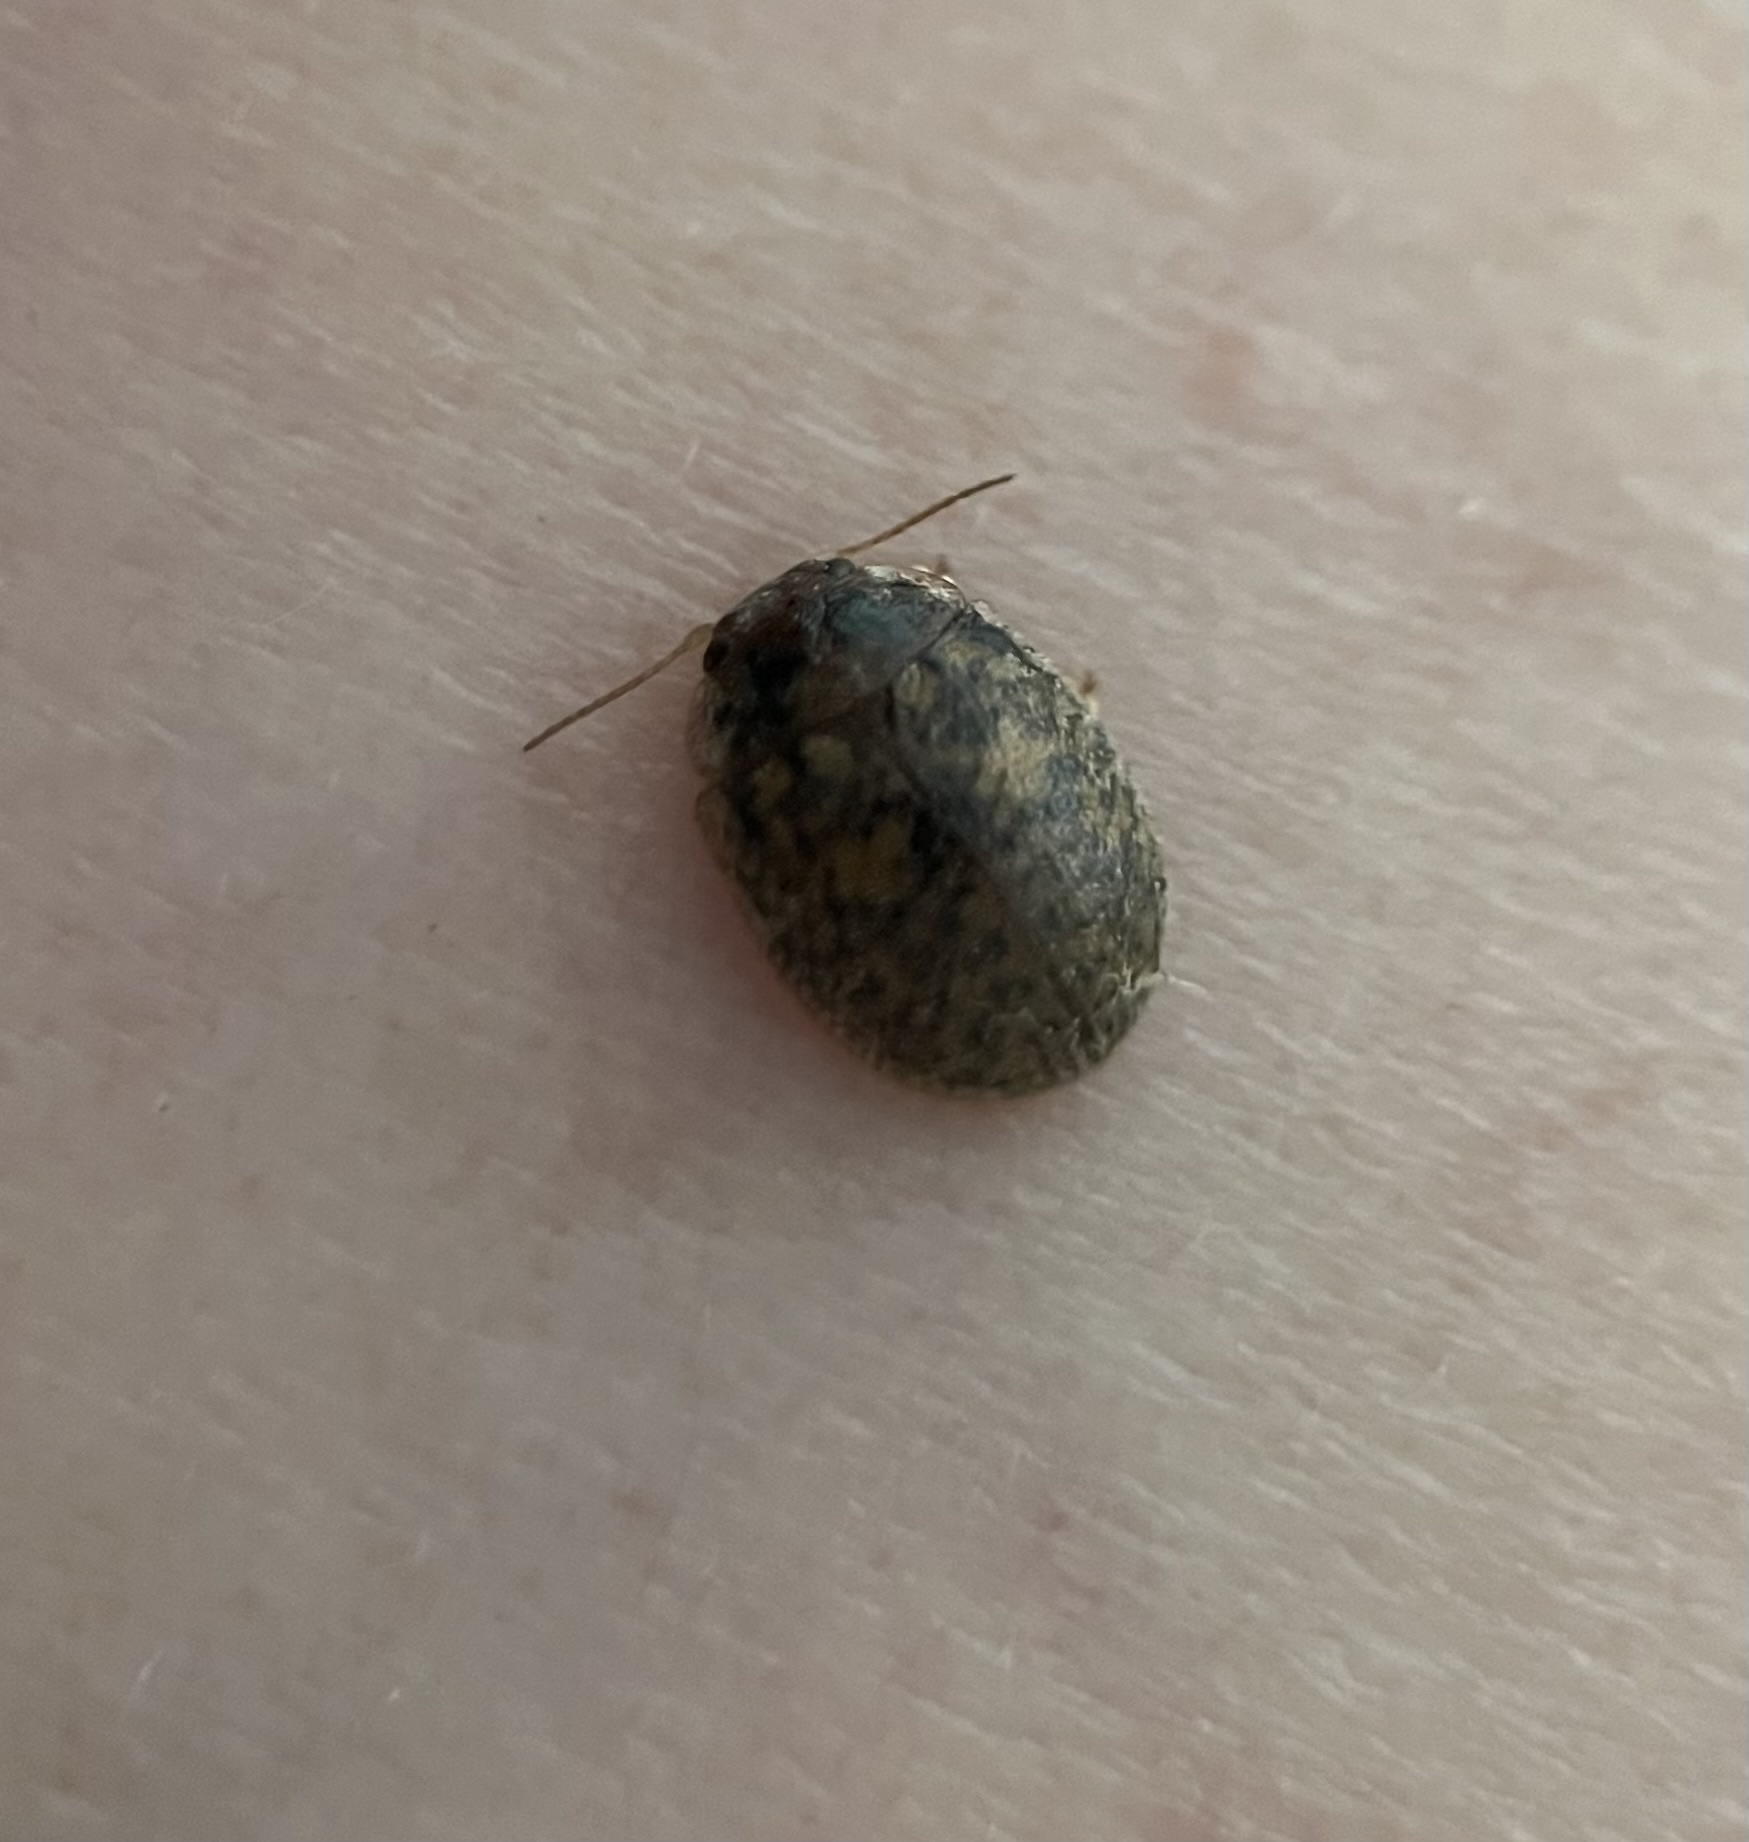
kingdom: Animalia
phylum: Arthropoda
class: Insecta
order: Coleoptera
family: Chrysomelidae
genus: Trachymela
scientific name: Trachymela sloanei
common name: Australian tortoise beetle
